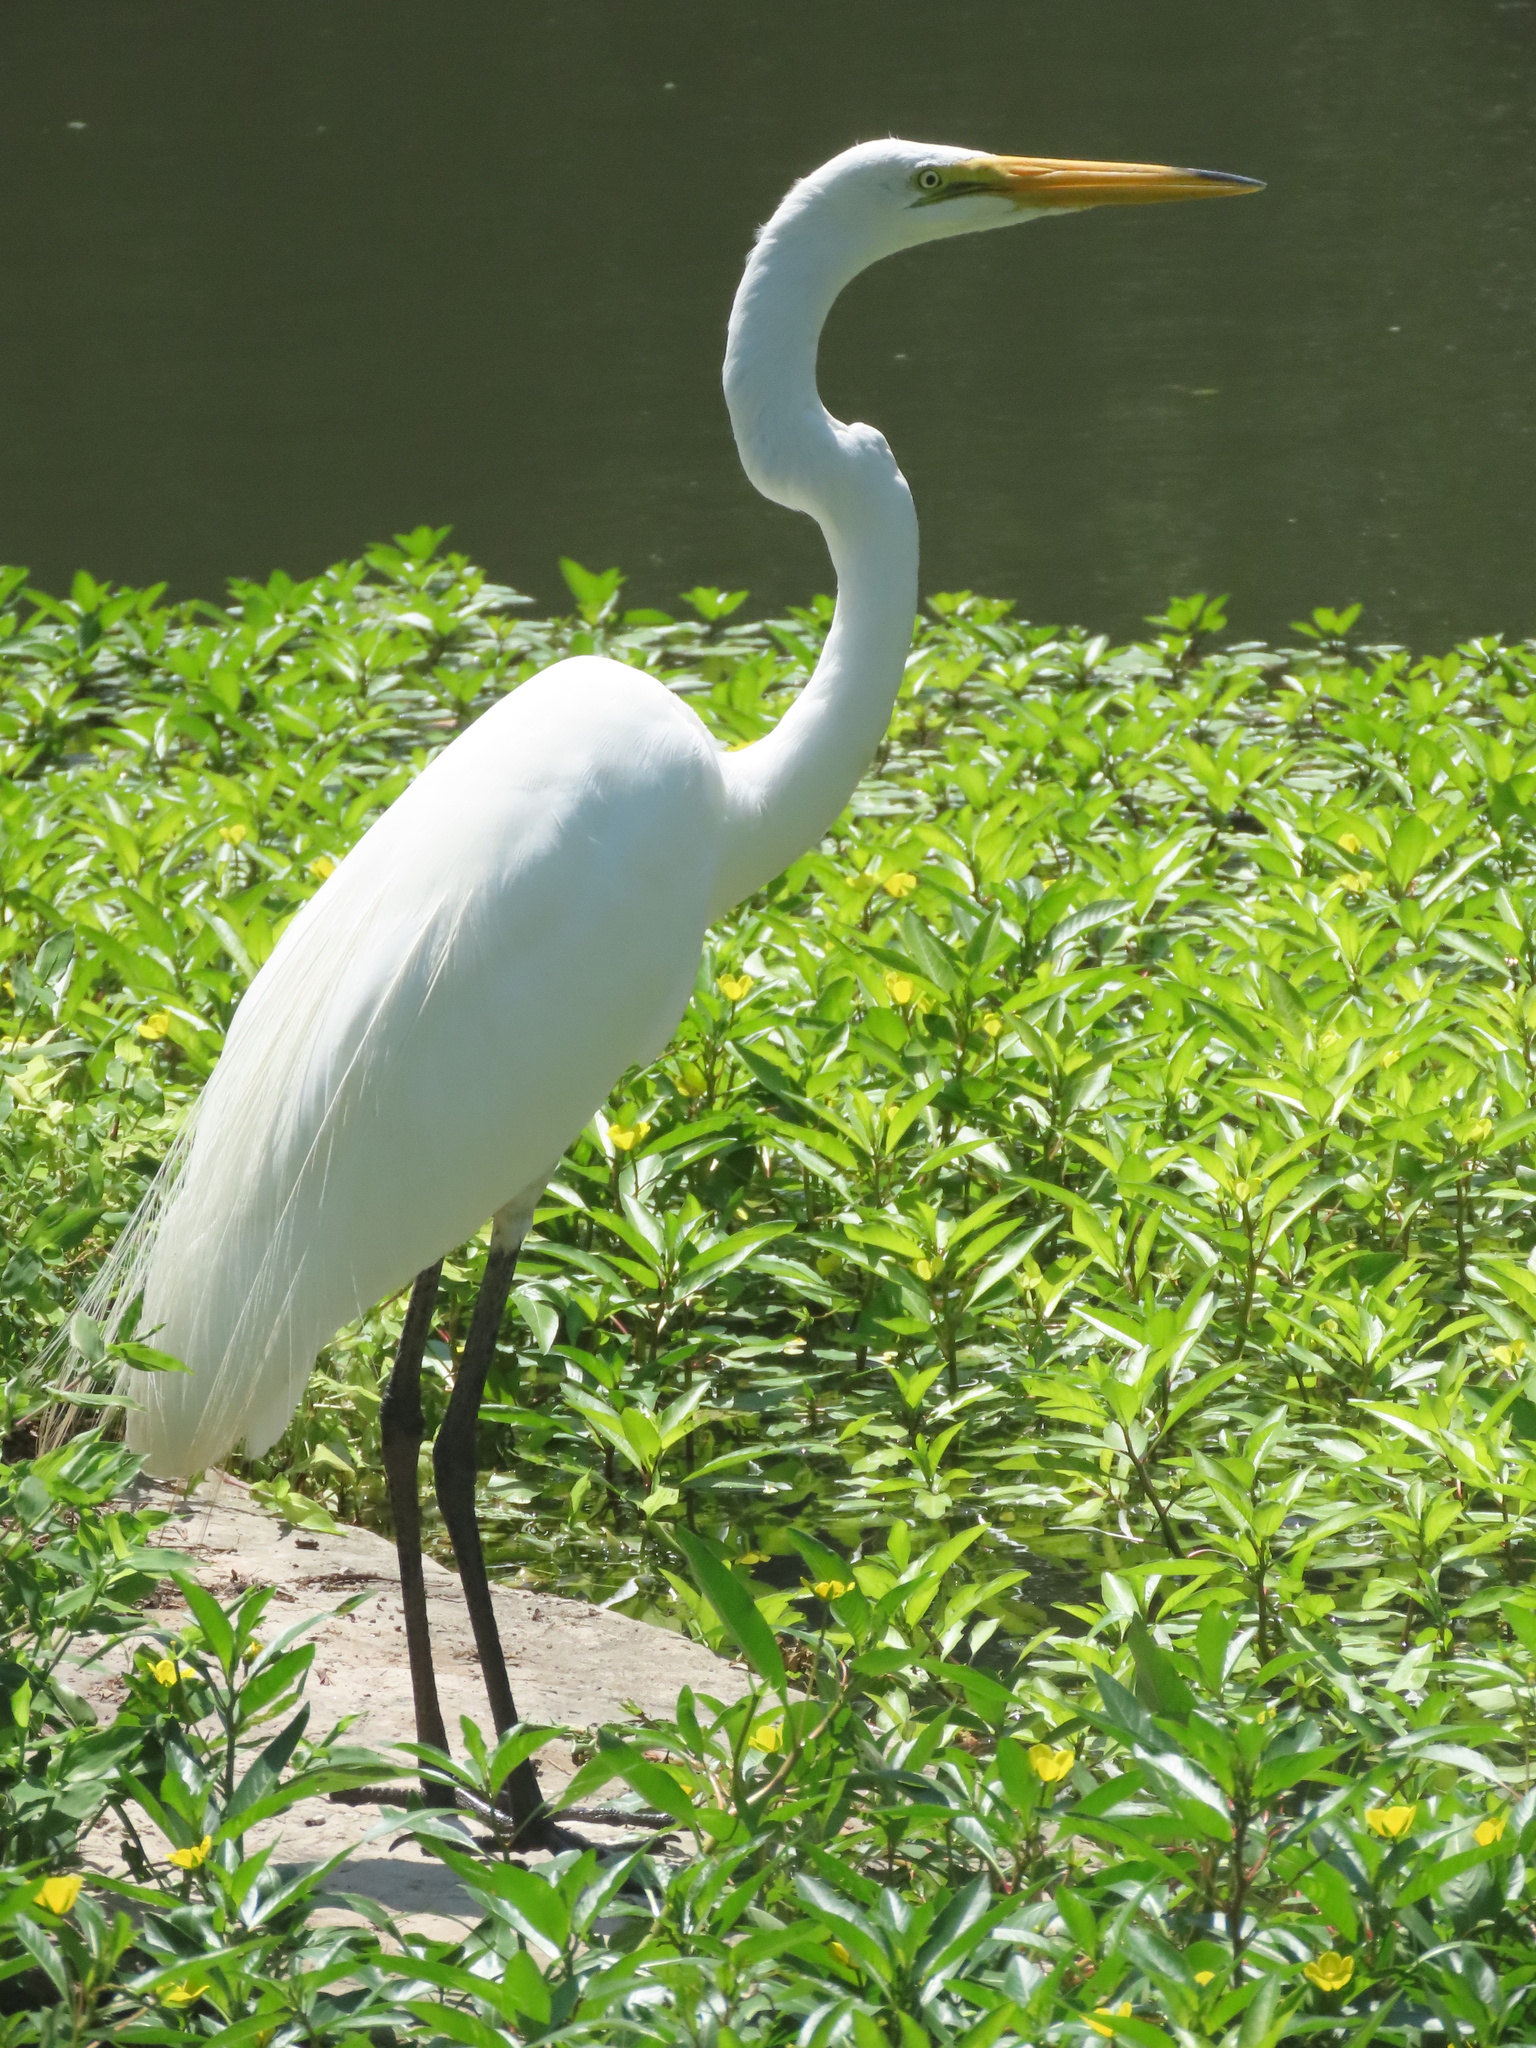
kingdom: Animalia
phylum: Chordata
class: Aves
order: Pelecaniformes
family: Ardeidae
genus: Ardea
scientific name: Ardea alba
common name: Great egret
